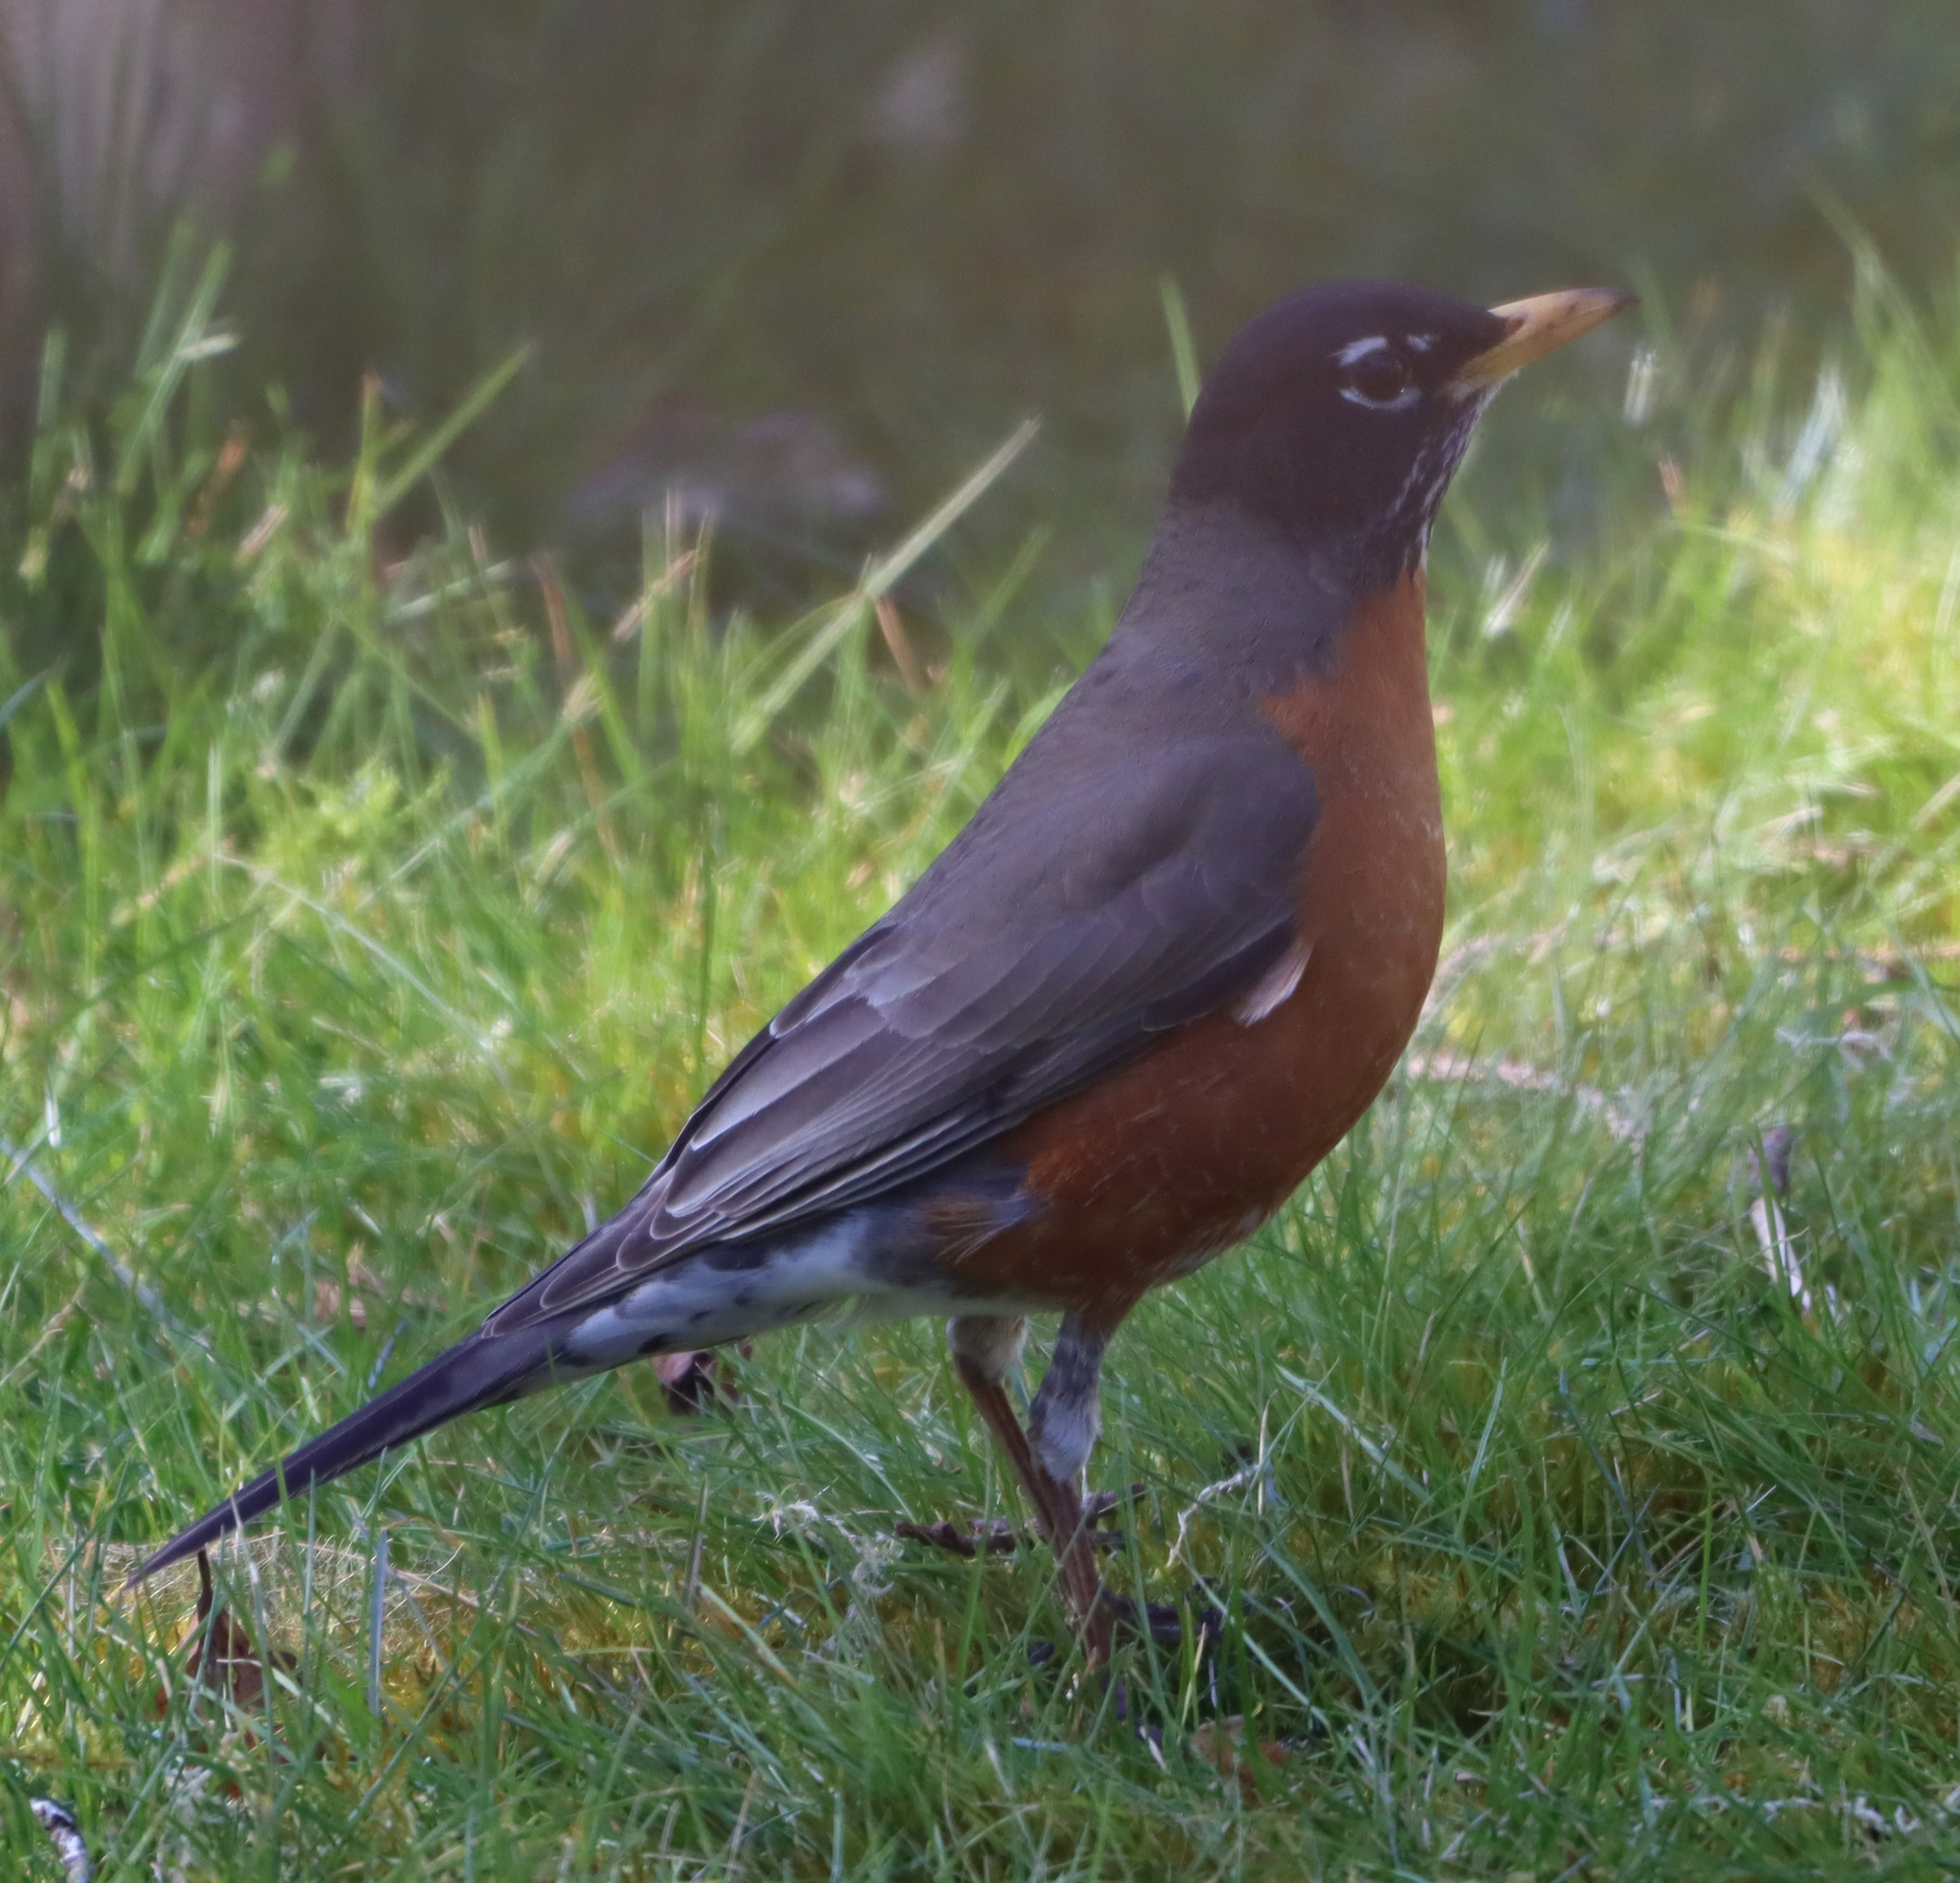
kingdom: Animalia
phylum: Chordata
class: Aves
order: Passeriformes
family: Turdidae
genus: Turdus
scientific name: Turdus migratorius
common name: American robin
